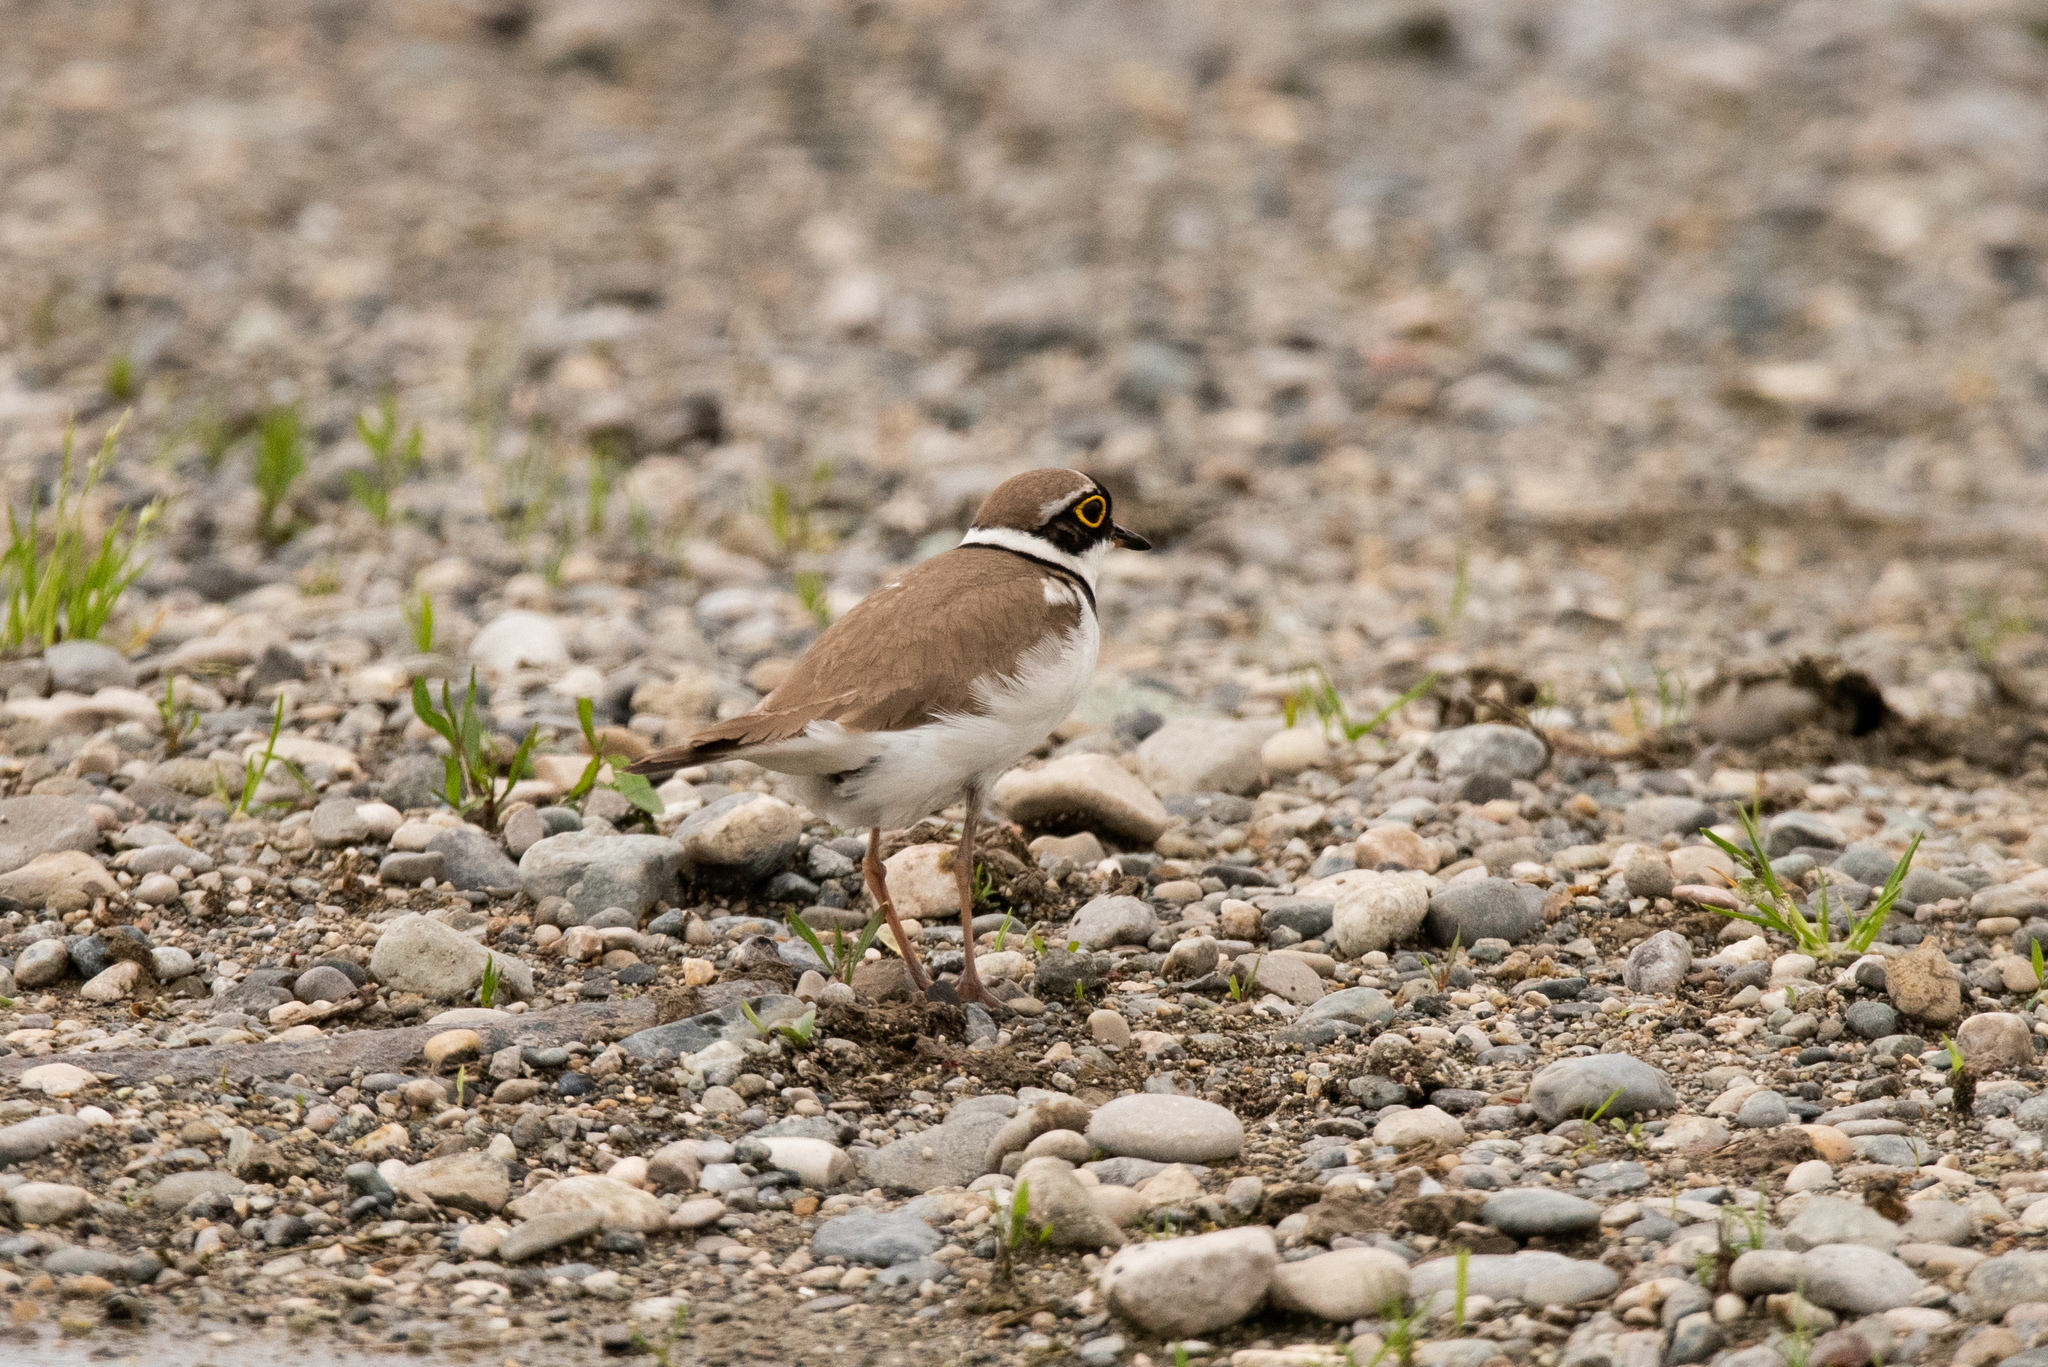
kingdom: Animalia
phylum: Chordata
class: Aves
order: Charadriiformes
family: Charadriidae
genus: Charadrius
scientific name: Charadrius dubius
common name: Little ringed plover
